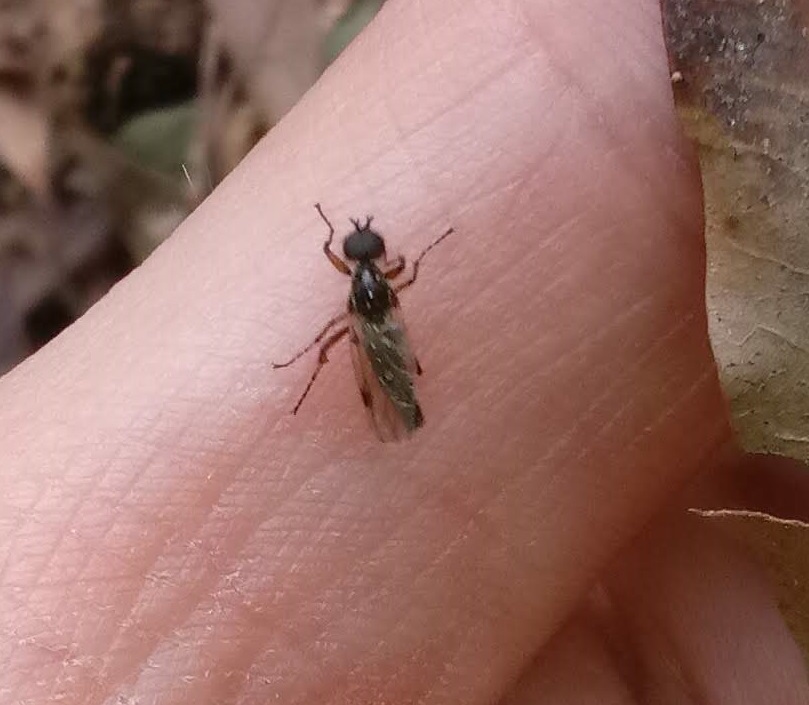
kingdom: Animalia
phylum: Arthropoda
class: Insecta
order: Diptera
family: Bibionidae
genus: Bibio
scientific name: Bibio articulatus
